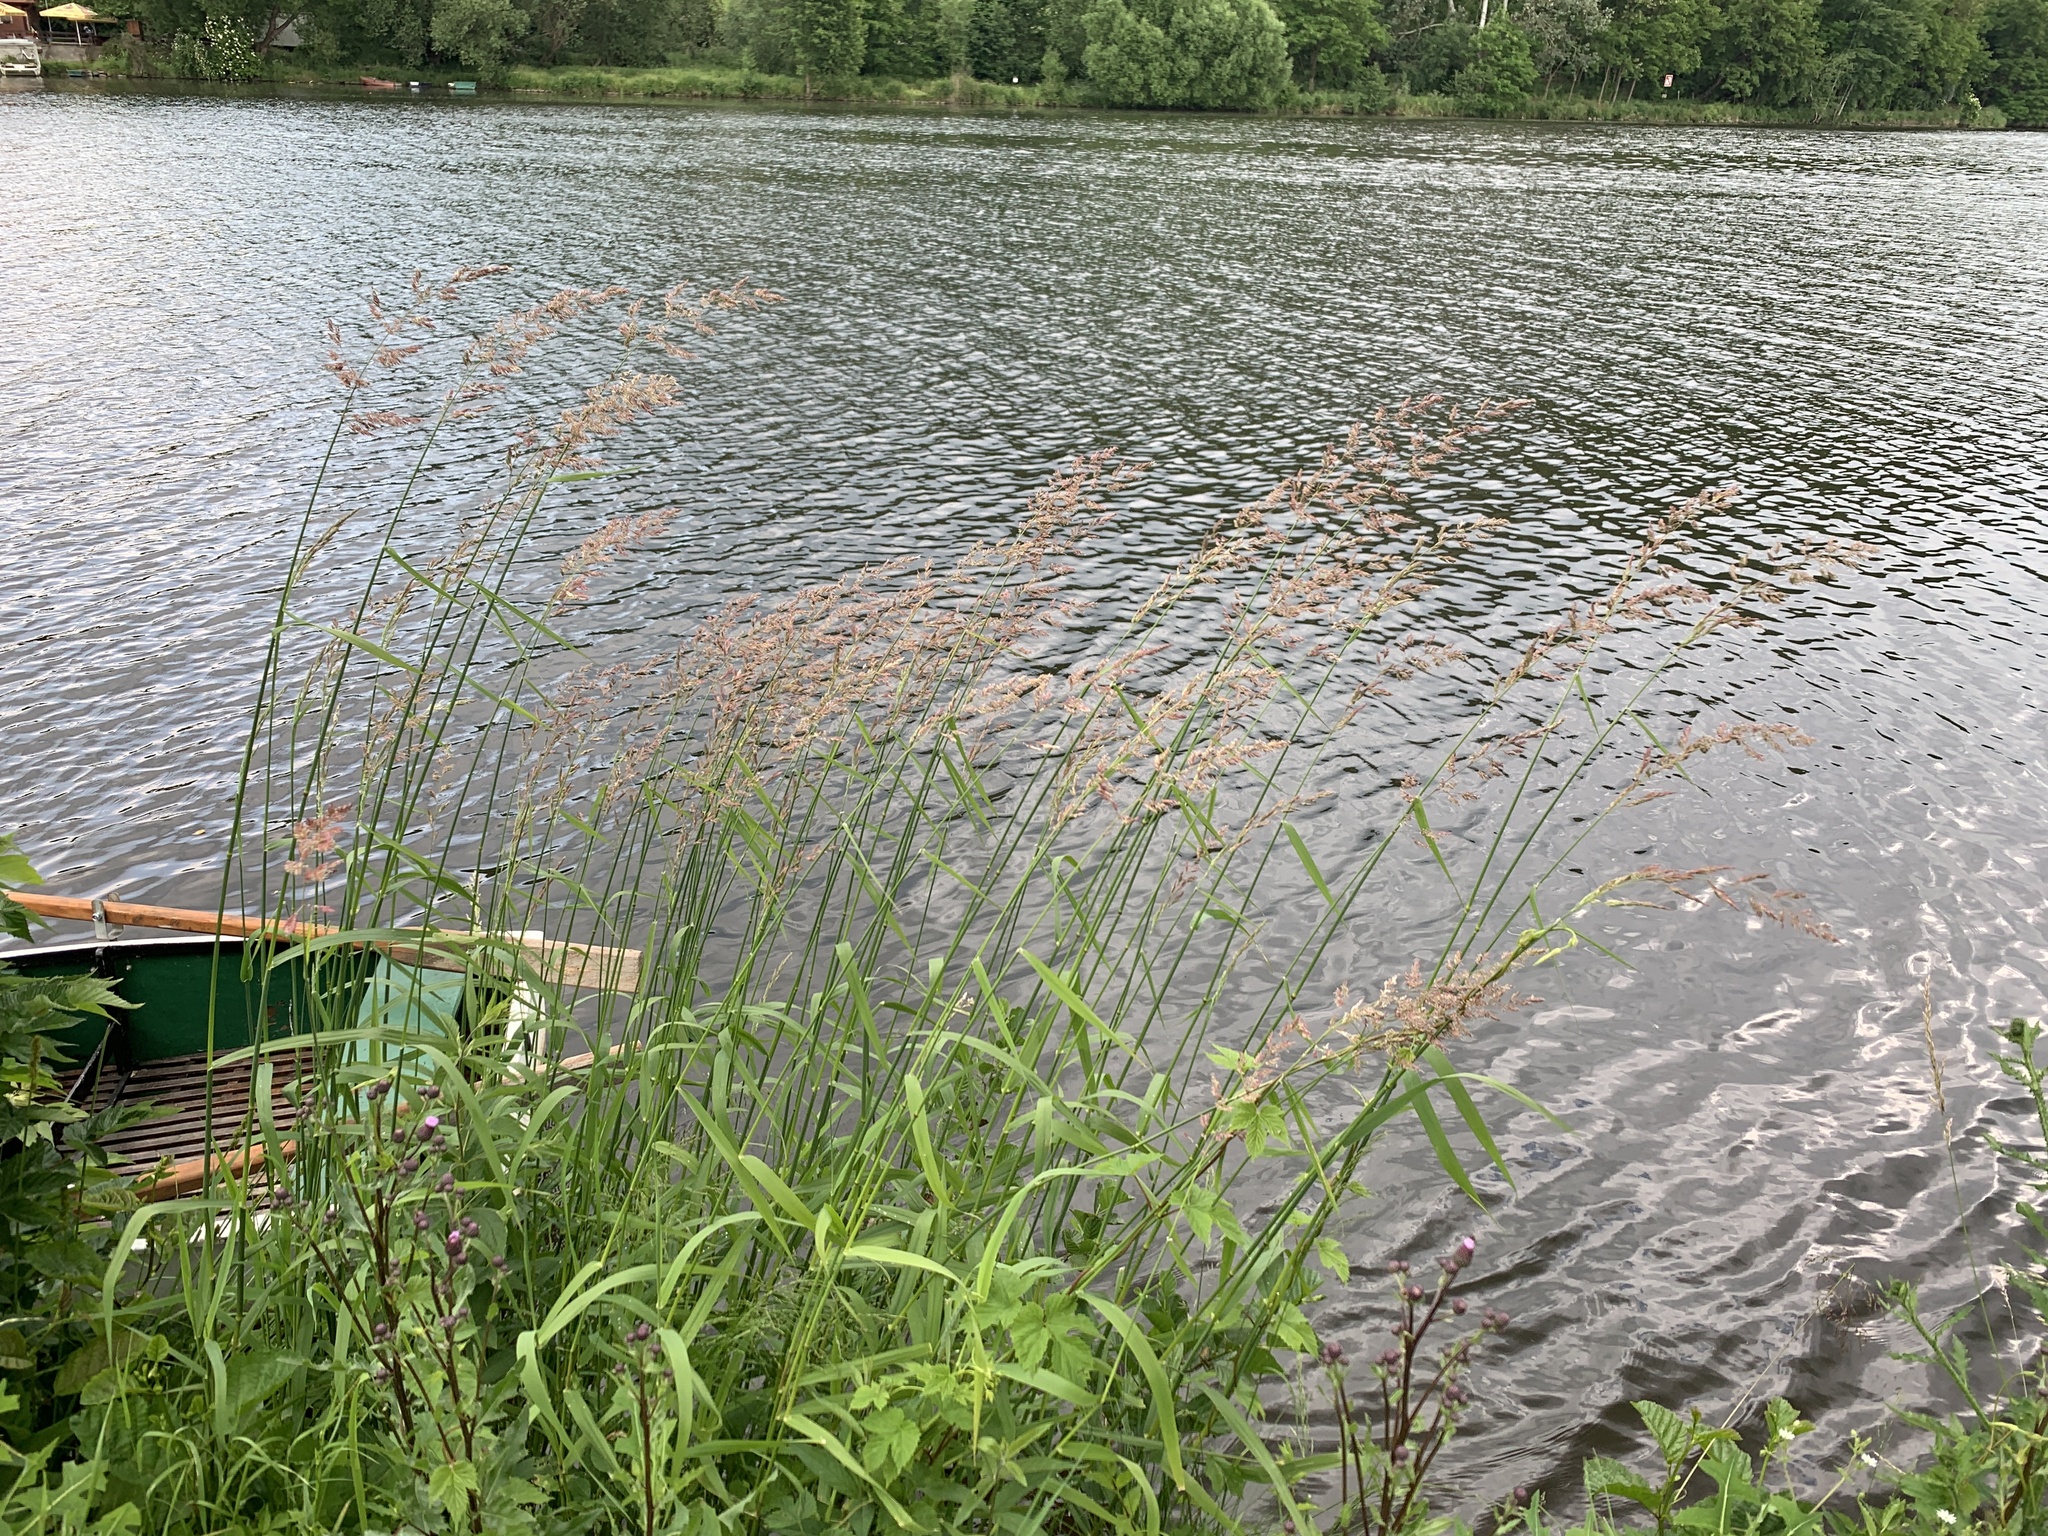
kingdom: Plantae
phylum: Tracheophyta
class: Liliopsida
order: Poales
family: Poaceae
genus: Phalaris
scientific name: Phalaris arundinacea
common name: Reed canary-grass
